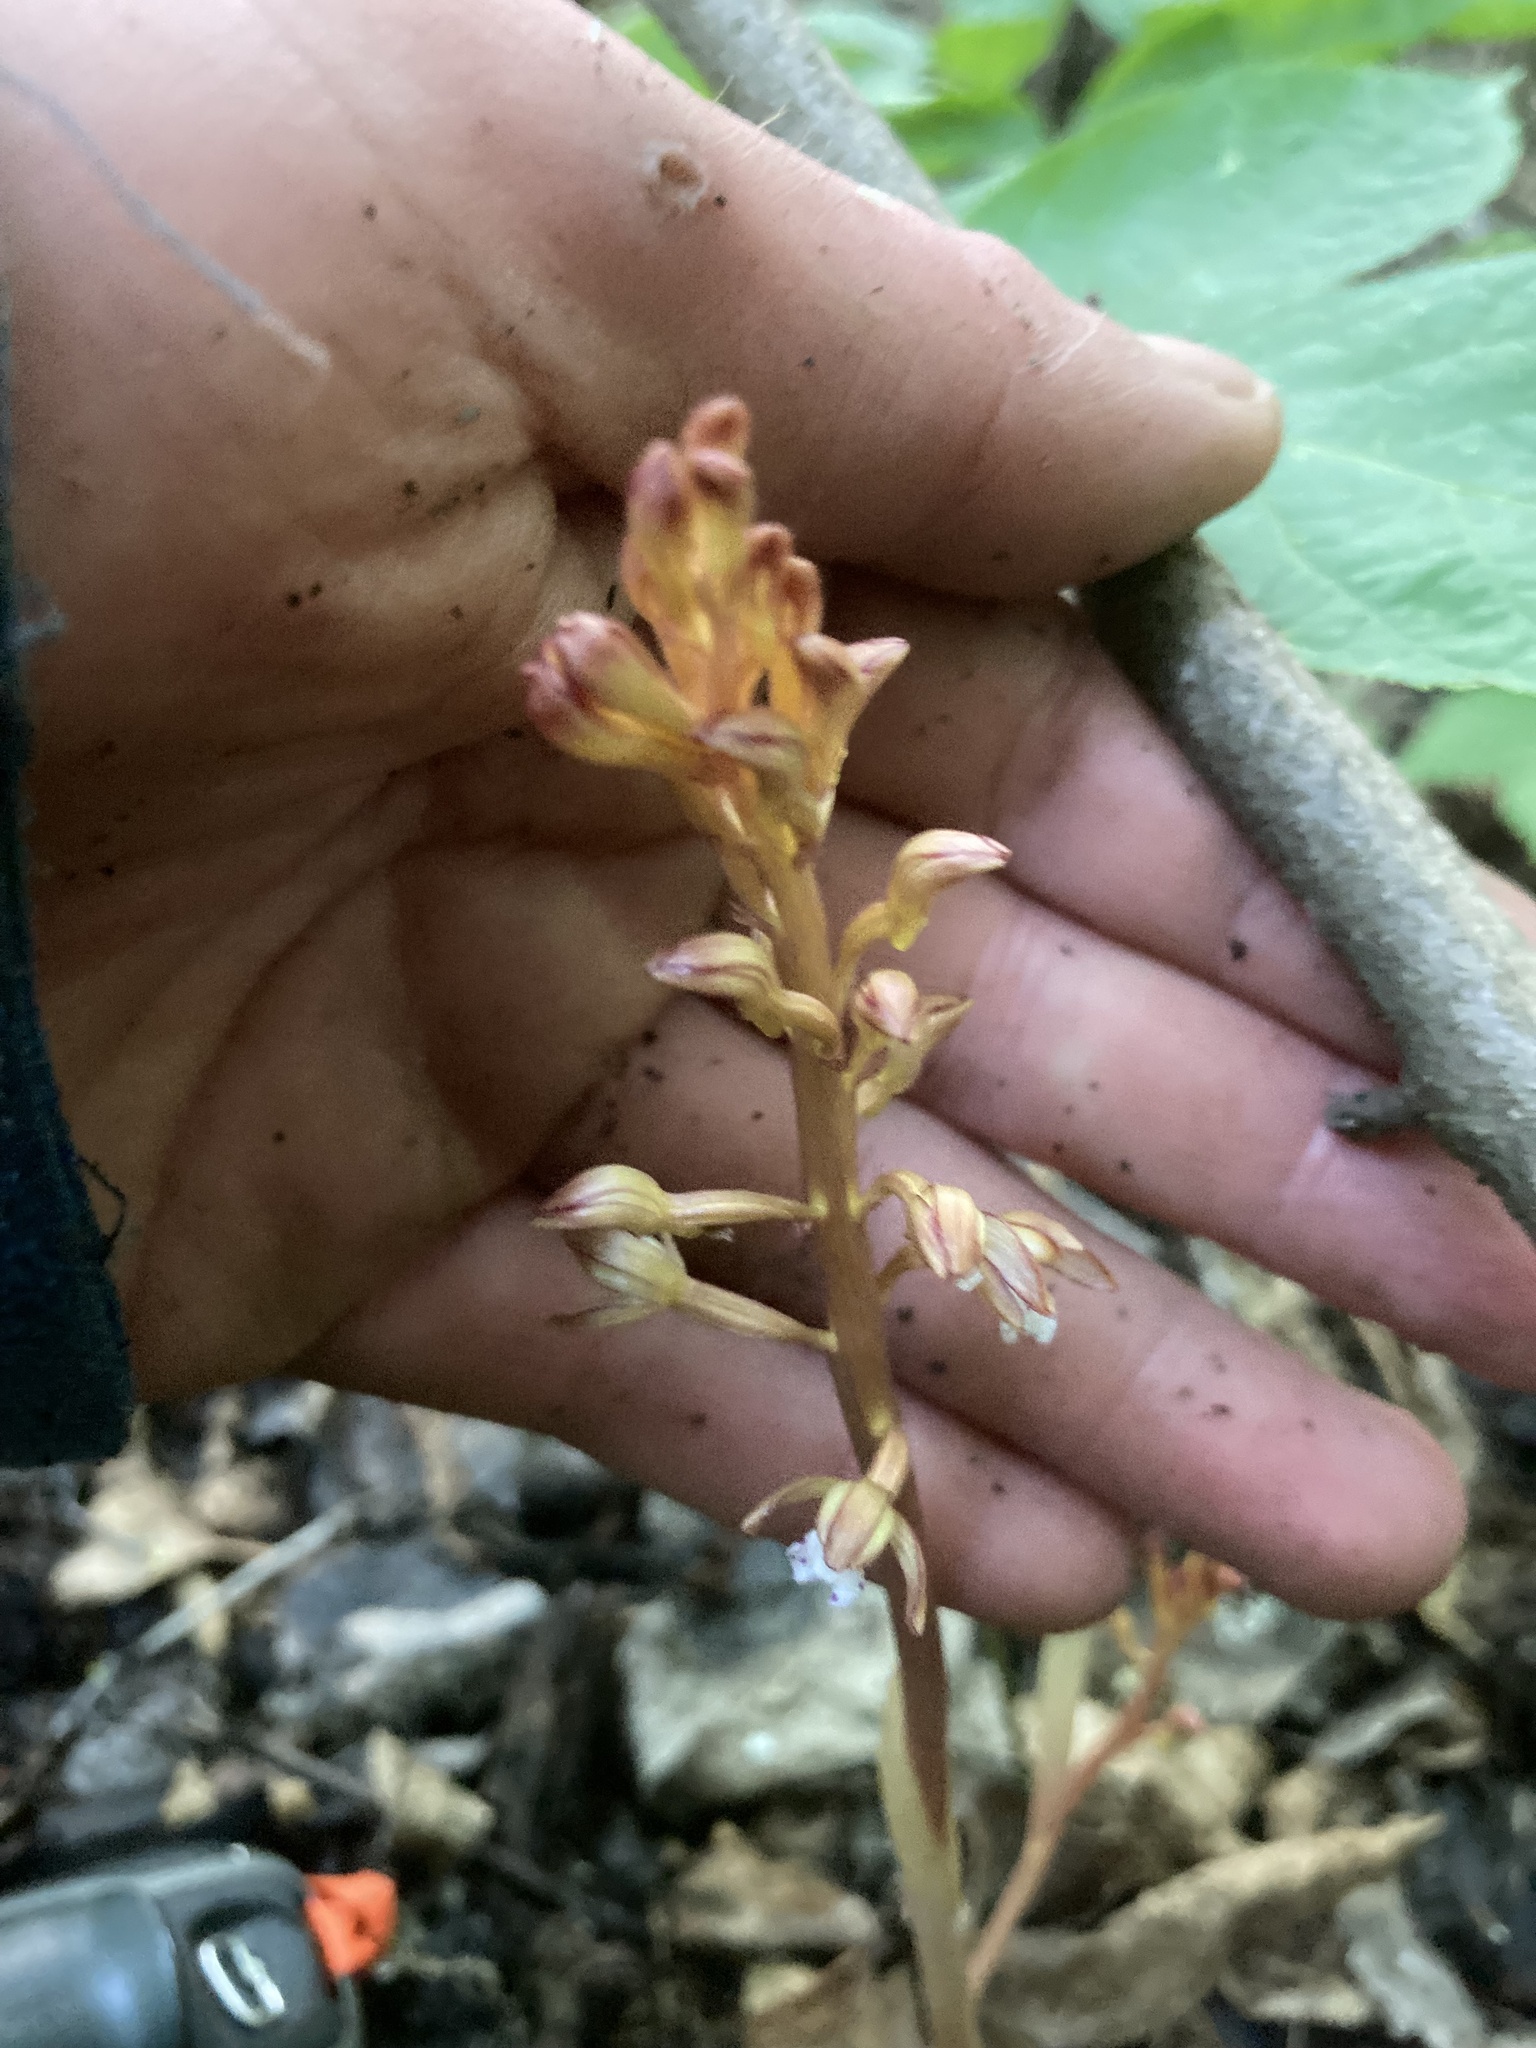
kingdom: Plantae
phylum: Tracheophyta
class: Liliopsida
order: Asparagales
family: Orchidaceae
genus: Corallorhiza
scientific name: Corallorhiza maculata
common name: Spotted coralroot
